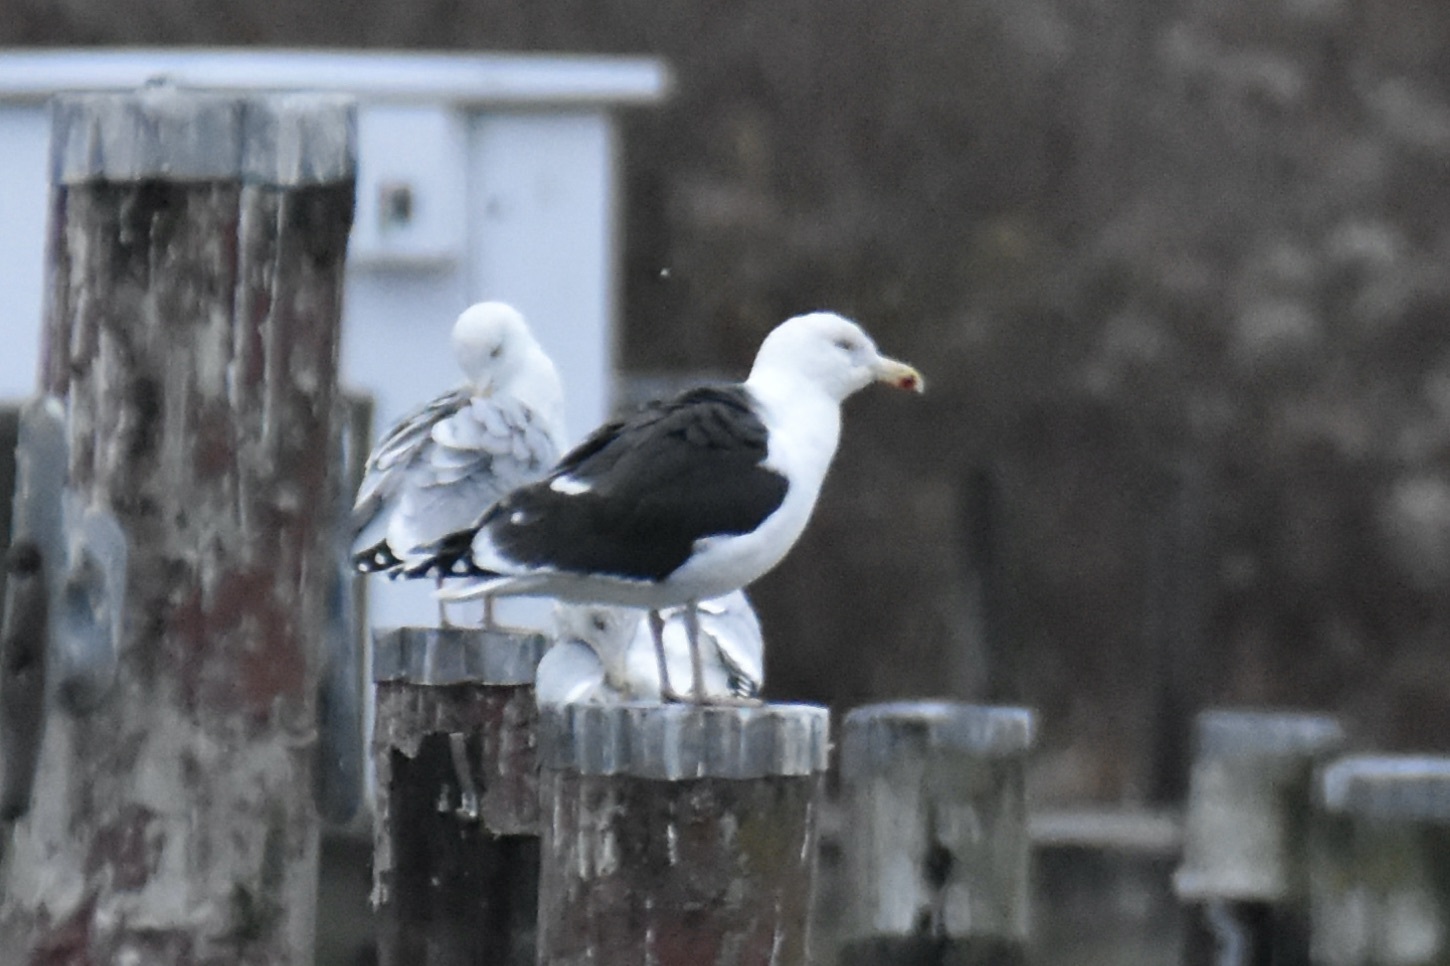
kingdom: Animalia
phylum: Chordata
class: Aves
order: Charadriiformes
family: Laridae
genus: Larus
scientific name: Larus marinus
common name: Great black-backed gull
